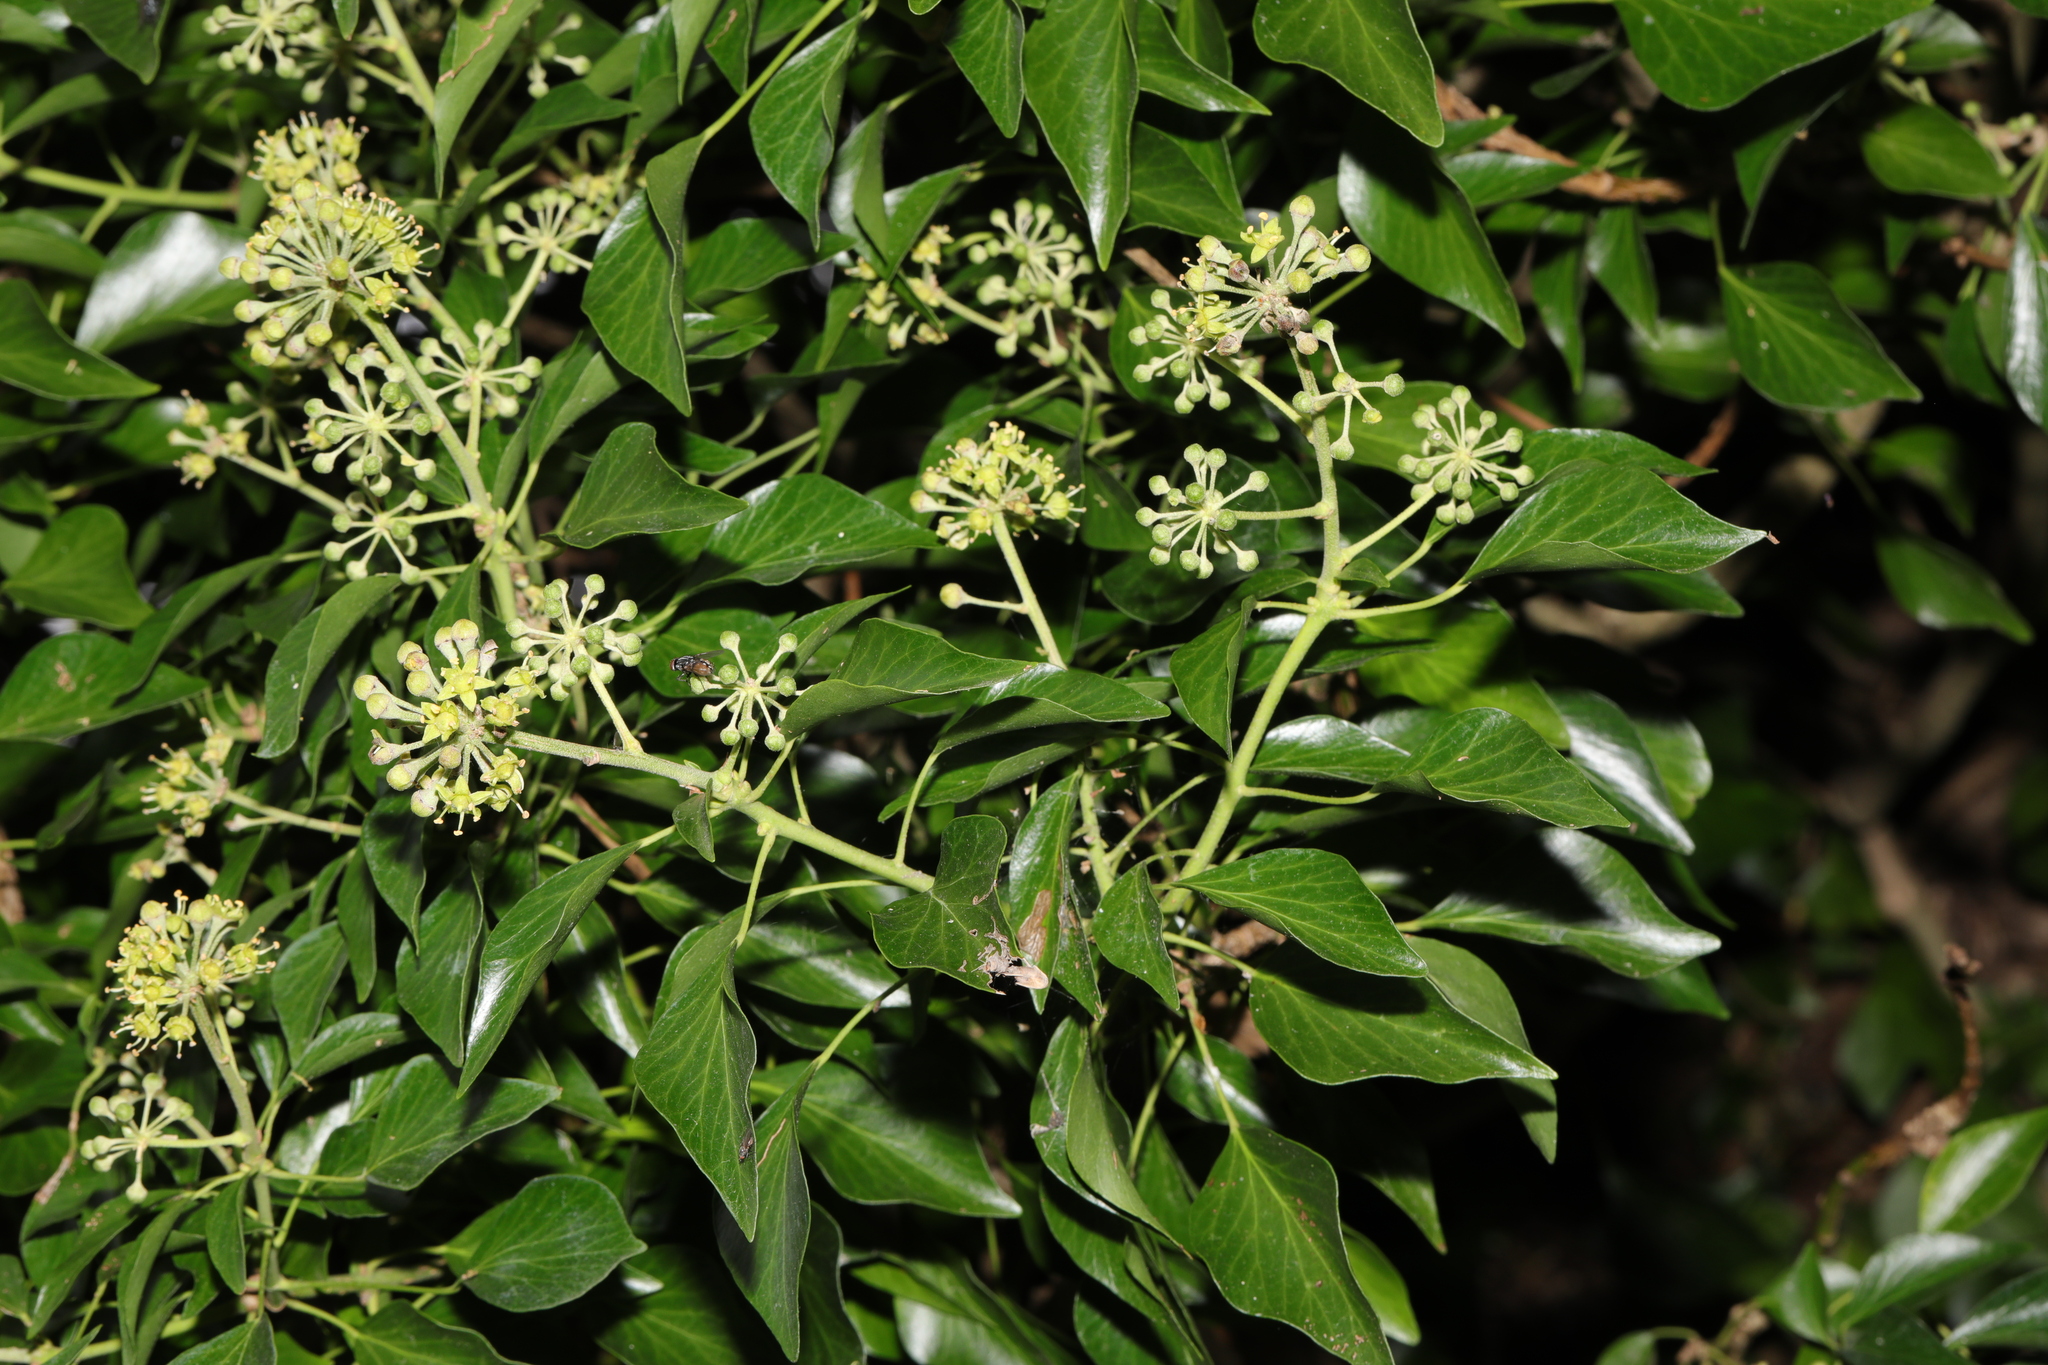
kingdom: Plantae
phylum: Tracheophyta
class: Magnoliopsida
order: Apiales
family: Araliaceae
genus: Hedera
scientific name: Hedera helix
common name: Ivy
